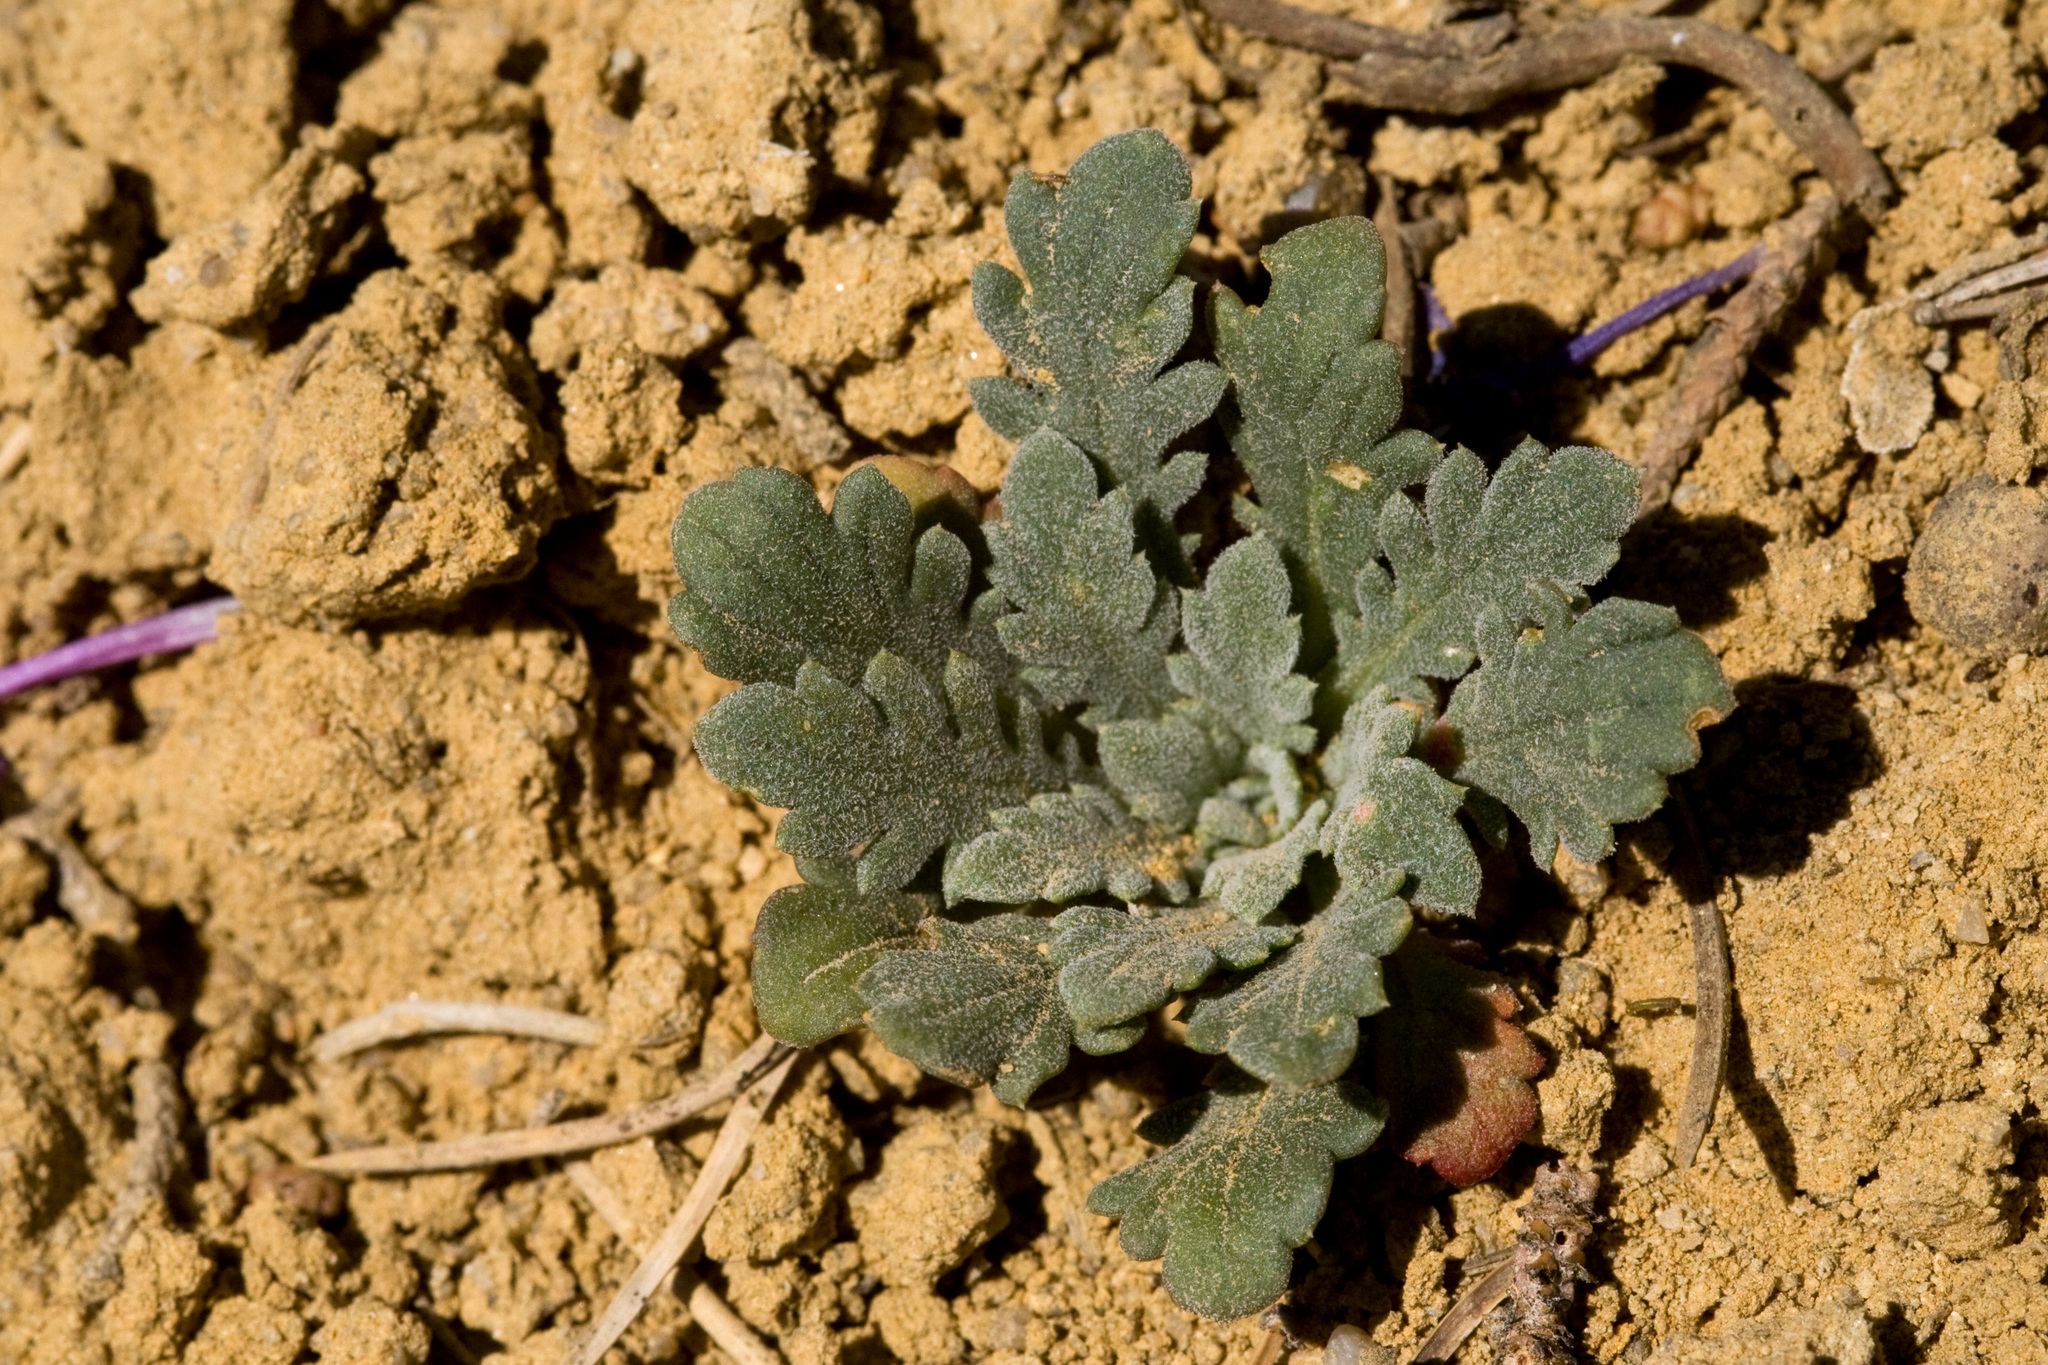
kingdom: Plantae
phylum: Tracheophyta
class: Magnoliopsida
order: Ericales
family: Polemoniaceae
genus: Aliciella
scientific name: Aliciella haydenii
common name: San juan gilia
